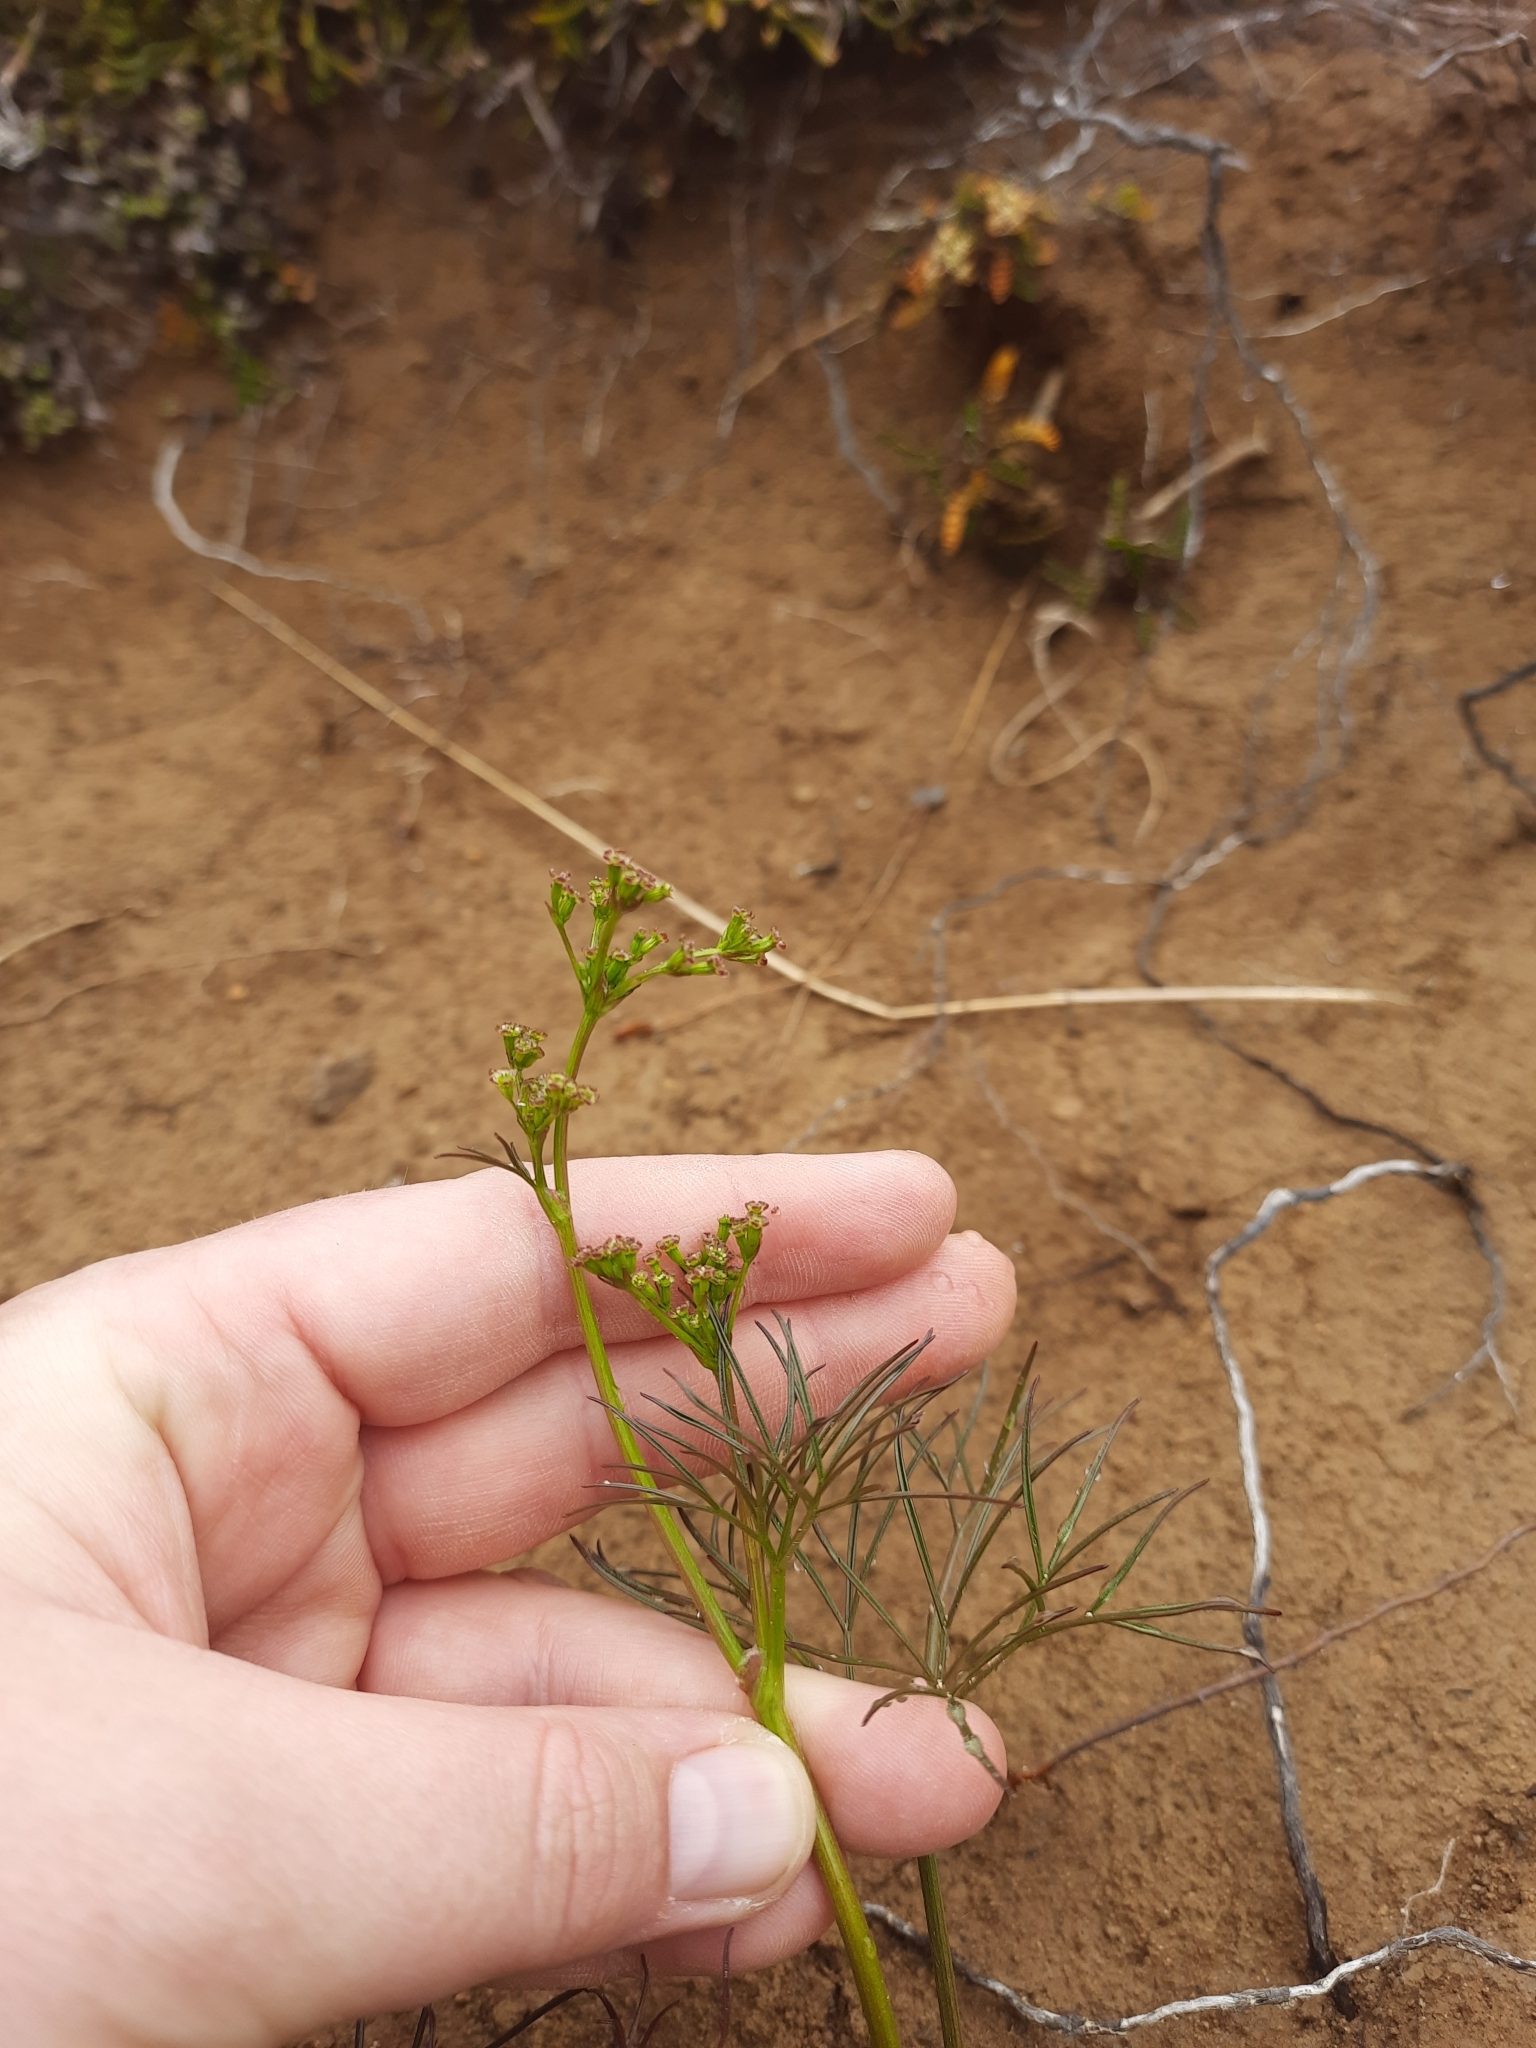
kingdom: Plantae
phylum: Tracheophyta
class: Magnoliopsida
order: Apiales
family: Apiaceae
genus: Anisotome
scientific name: Anisotome filifolia
